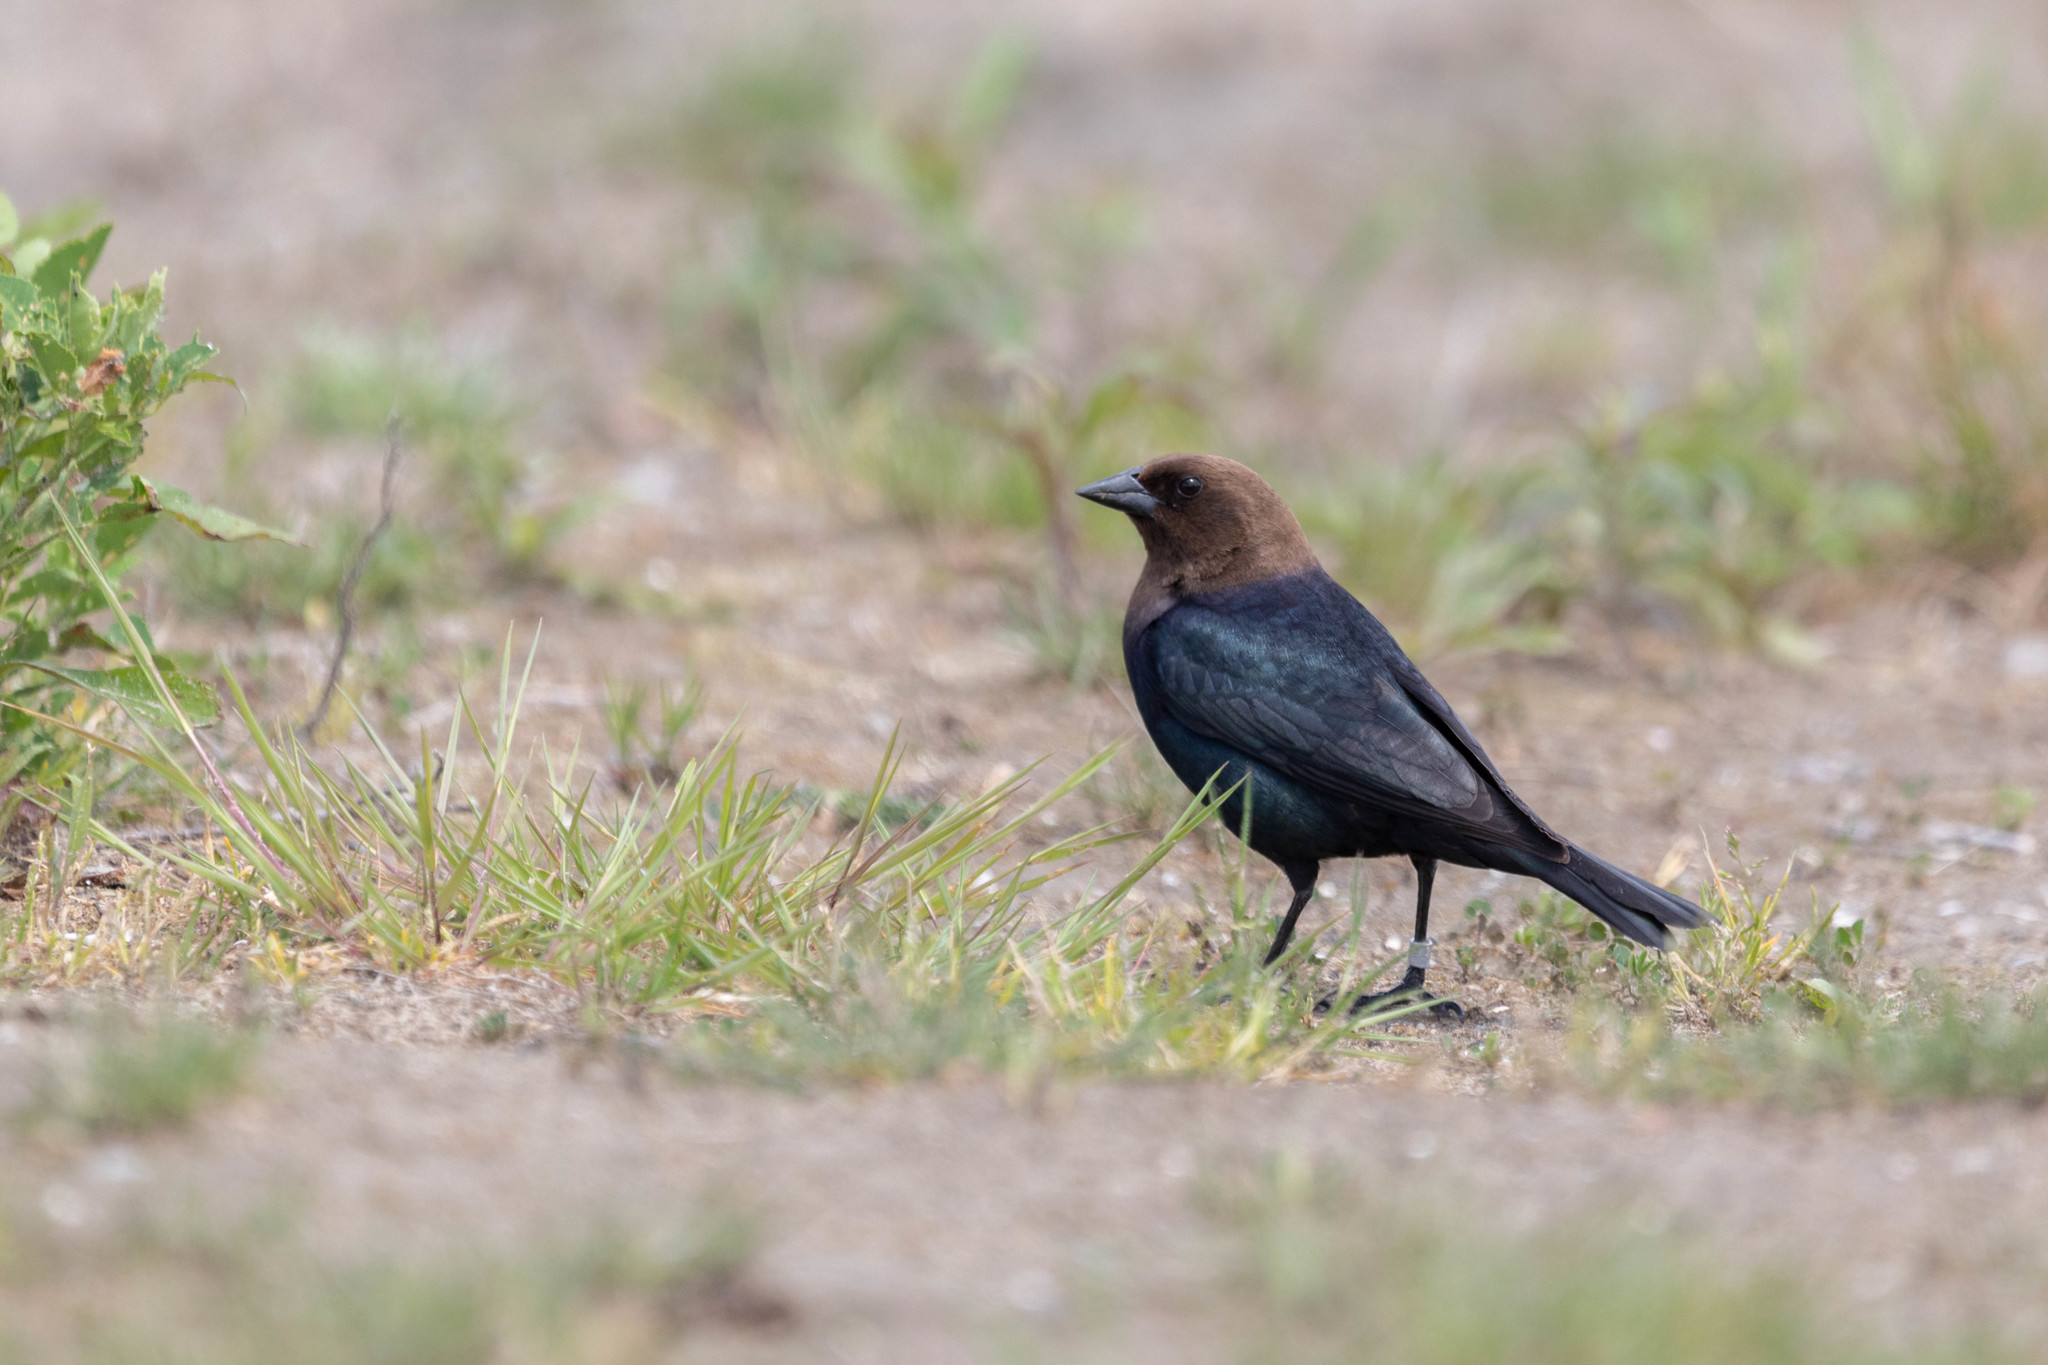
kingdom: Animalia
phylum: Chordata
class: Aves
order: Passeriformes
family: Icteridae
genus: Molothrus
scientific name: Molothrus ater
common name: Brown-headed cowbird
